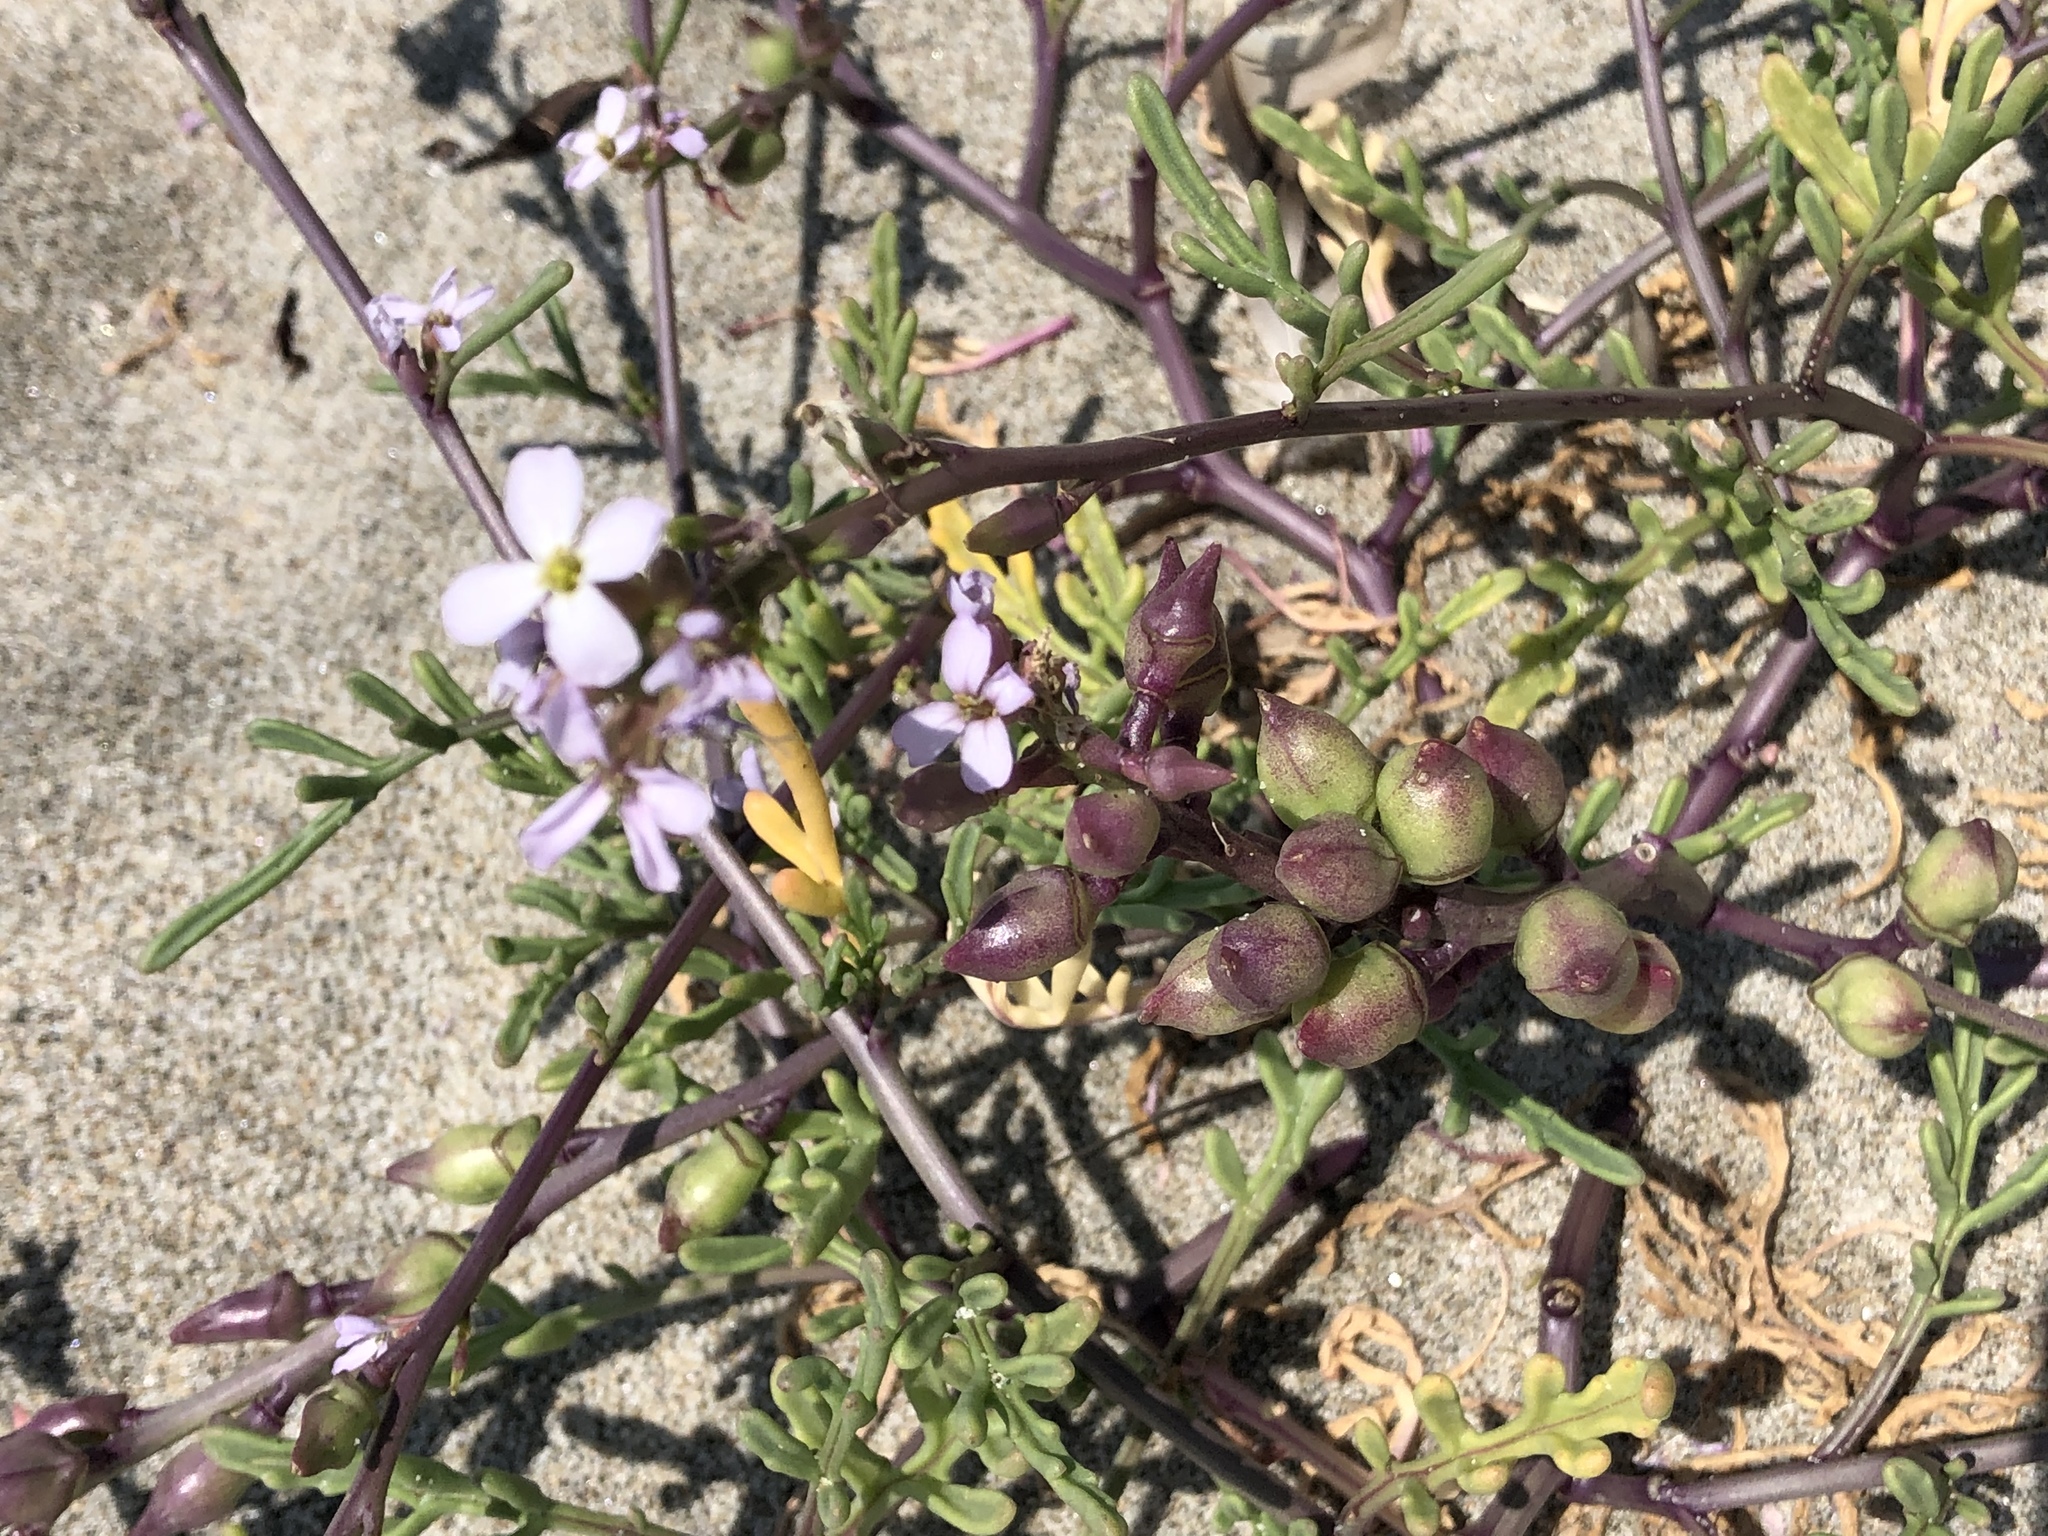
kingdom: Plantae
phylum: Tracheophyta
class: Magnoliopsida
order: Brassicales
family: Brassicaceae
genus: Cakile
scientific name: Cakile maritima
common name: Sea rocket
